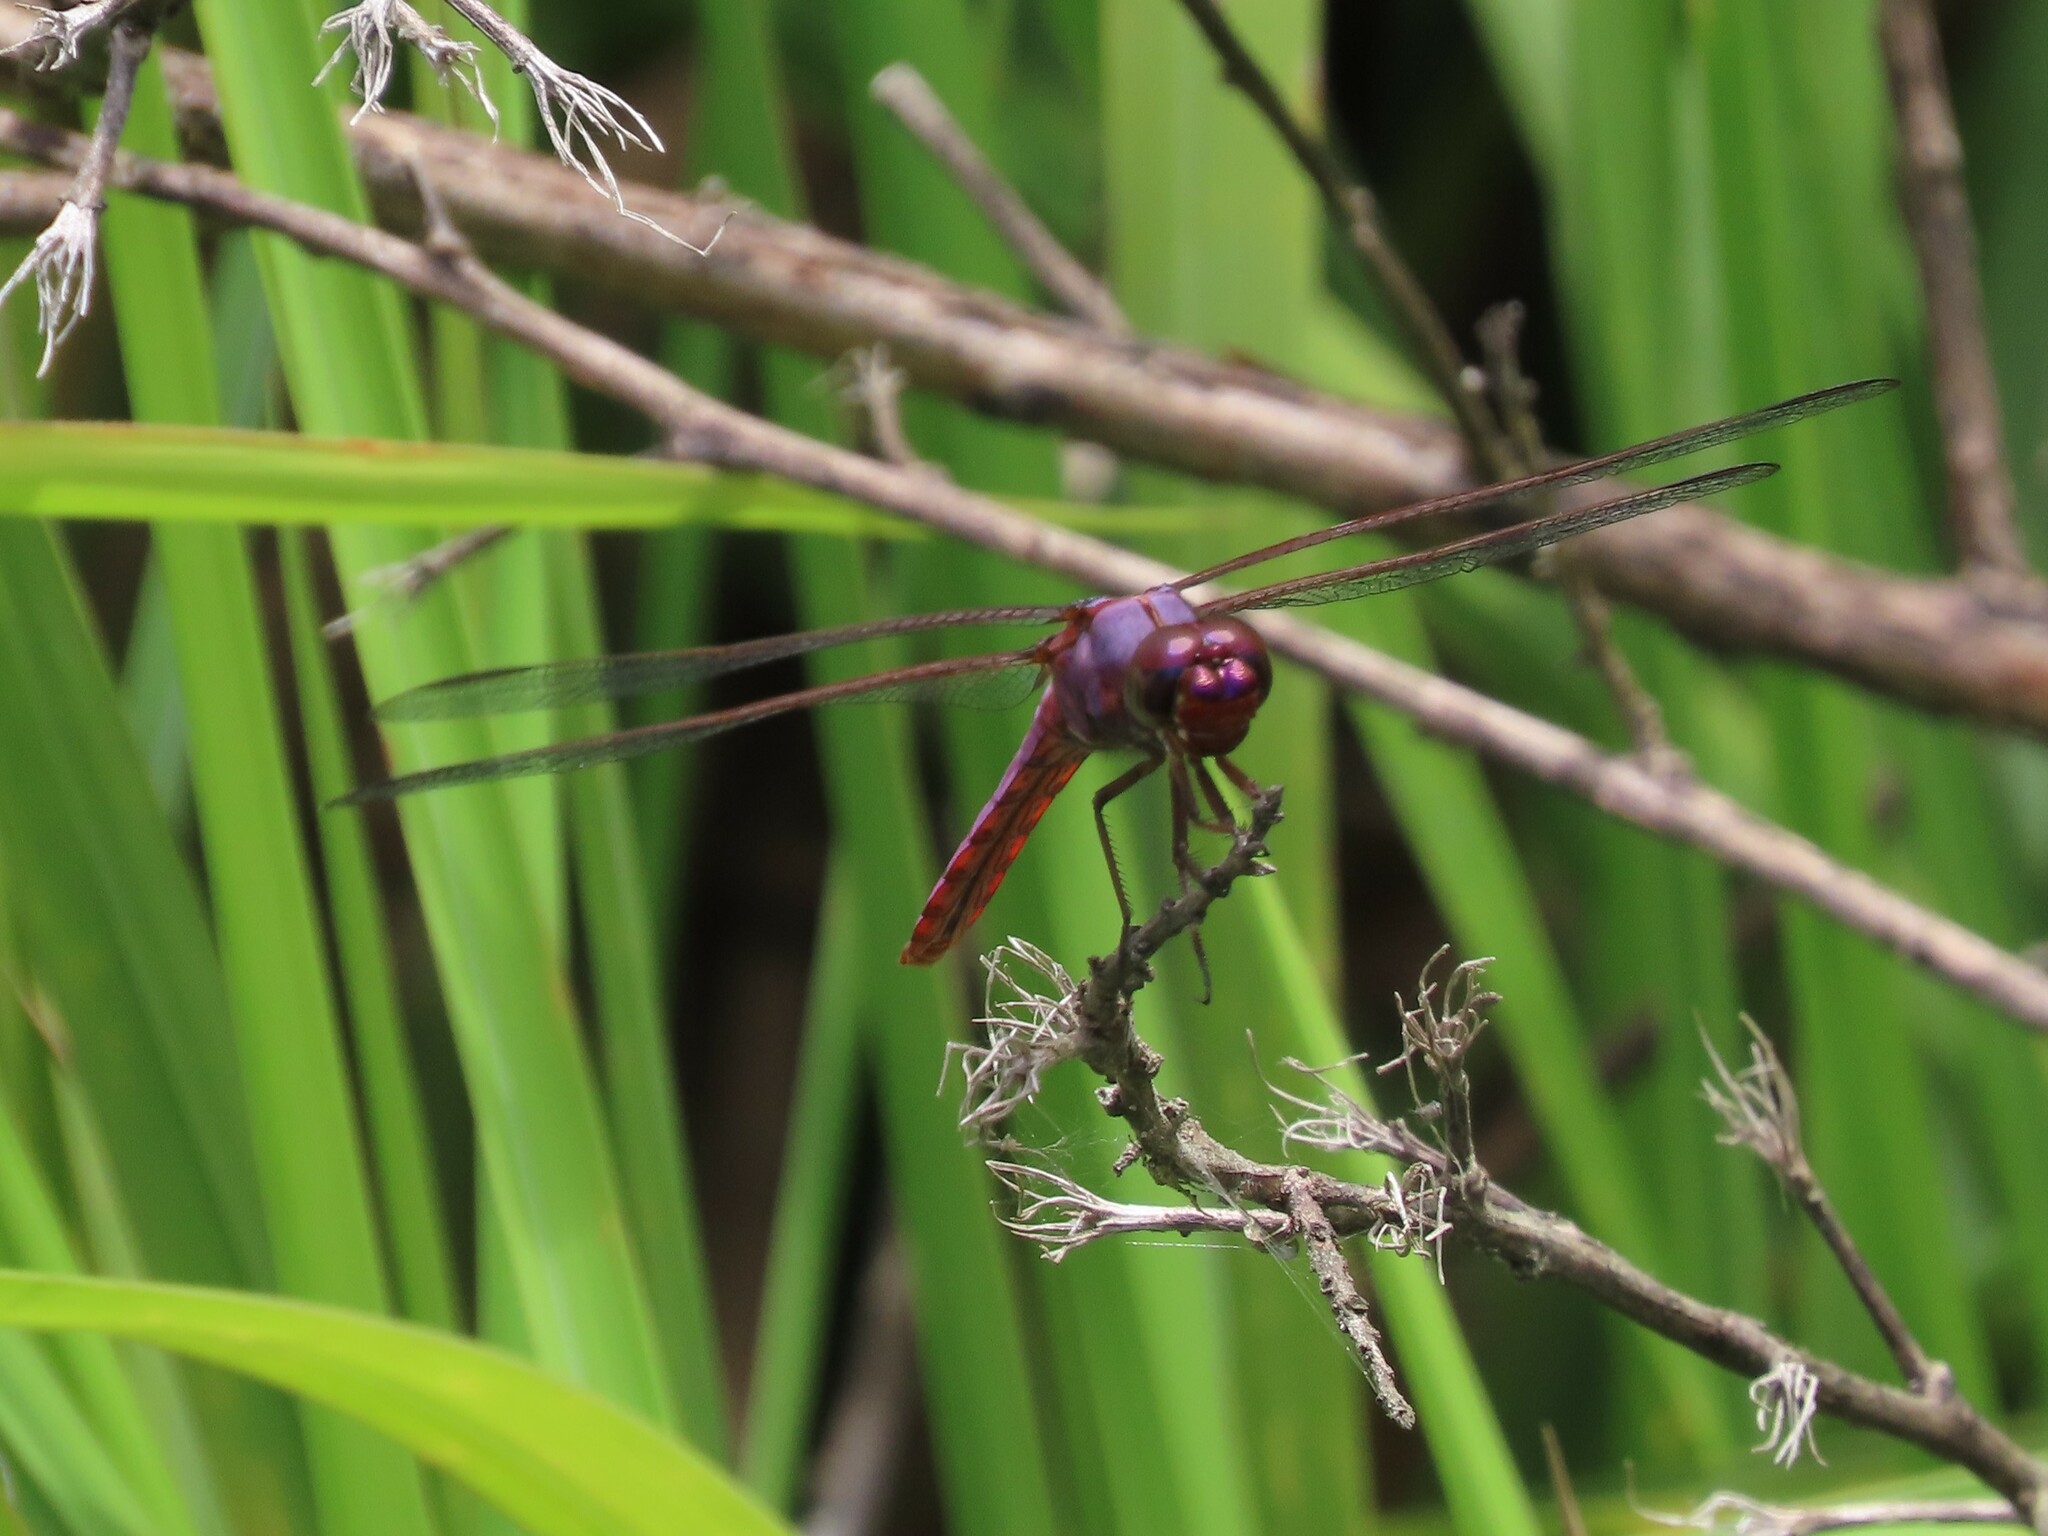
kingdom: Animalia
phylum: Arthropoda
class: Insecta
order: Odonata
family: Libellulidae
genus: Orthemis
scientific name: Orthemis ferruginea
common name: Roseate skimmer
